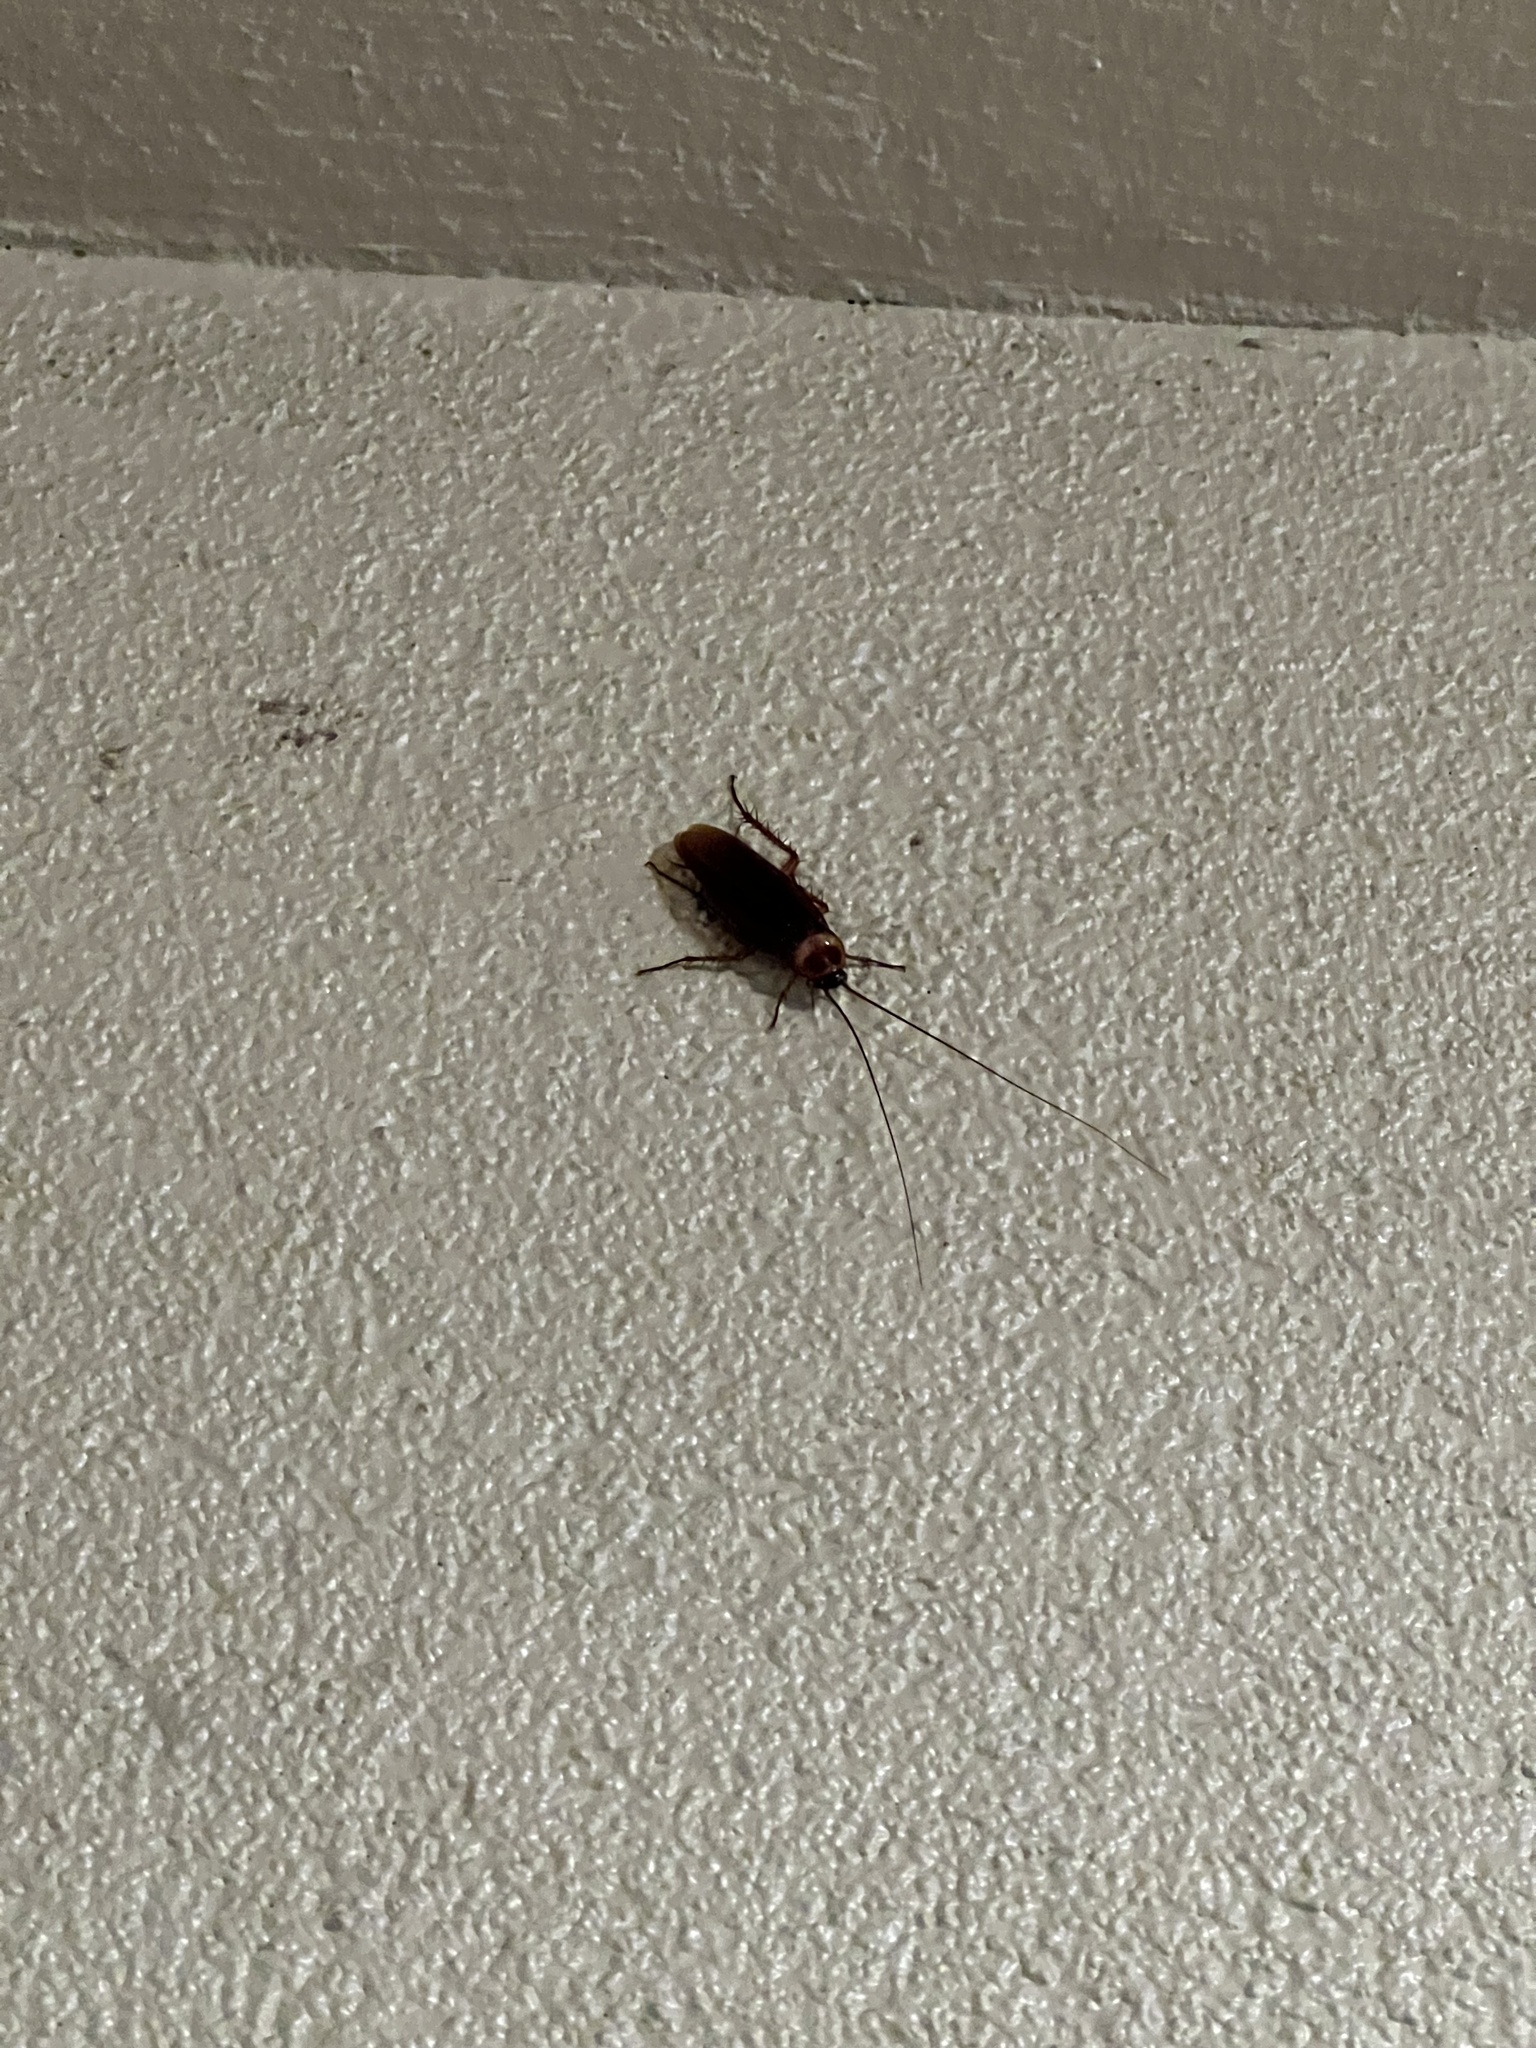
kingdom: Animalia
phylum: Arthropoda
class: Insecta
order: Blattodea
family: Blattidae
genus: Periplaneta
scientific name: Periplaneta americana
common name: American cockroach
